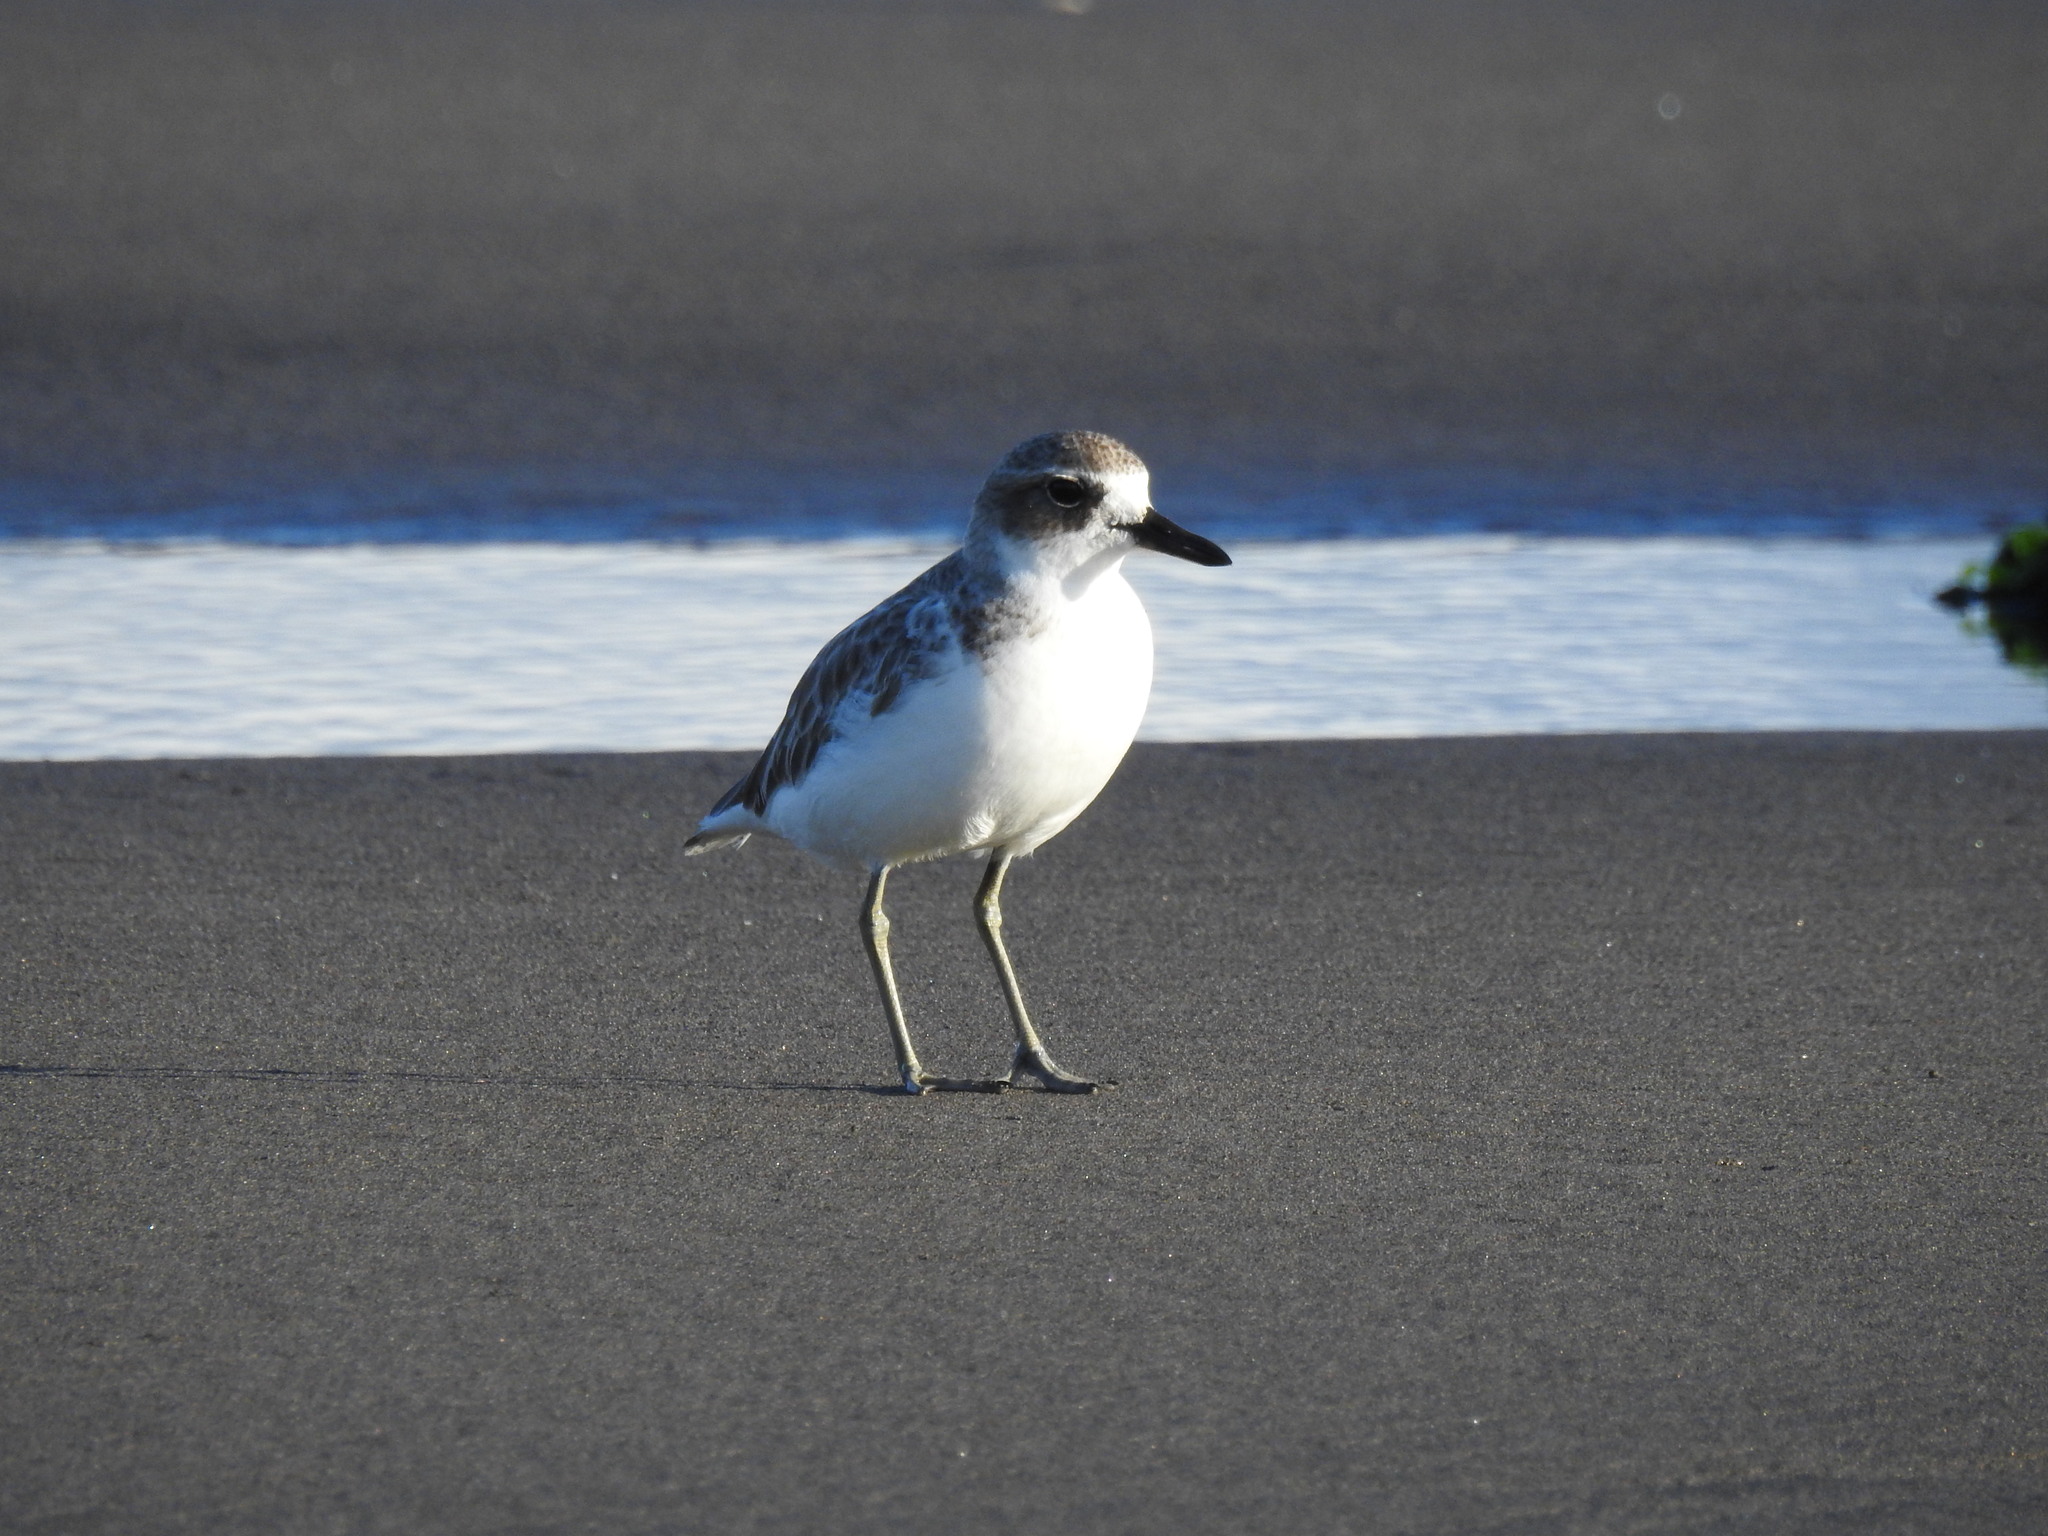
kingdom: Animalia
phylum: Chordata
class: Aves
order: Charadriiformes
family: Charadriidae
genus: Anarhynchus
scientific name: Anarhynchus
